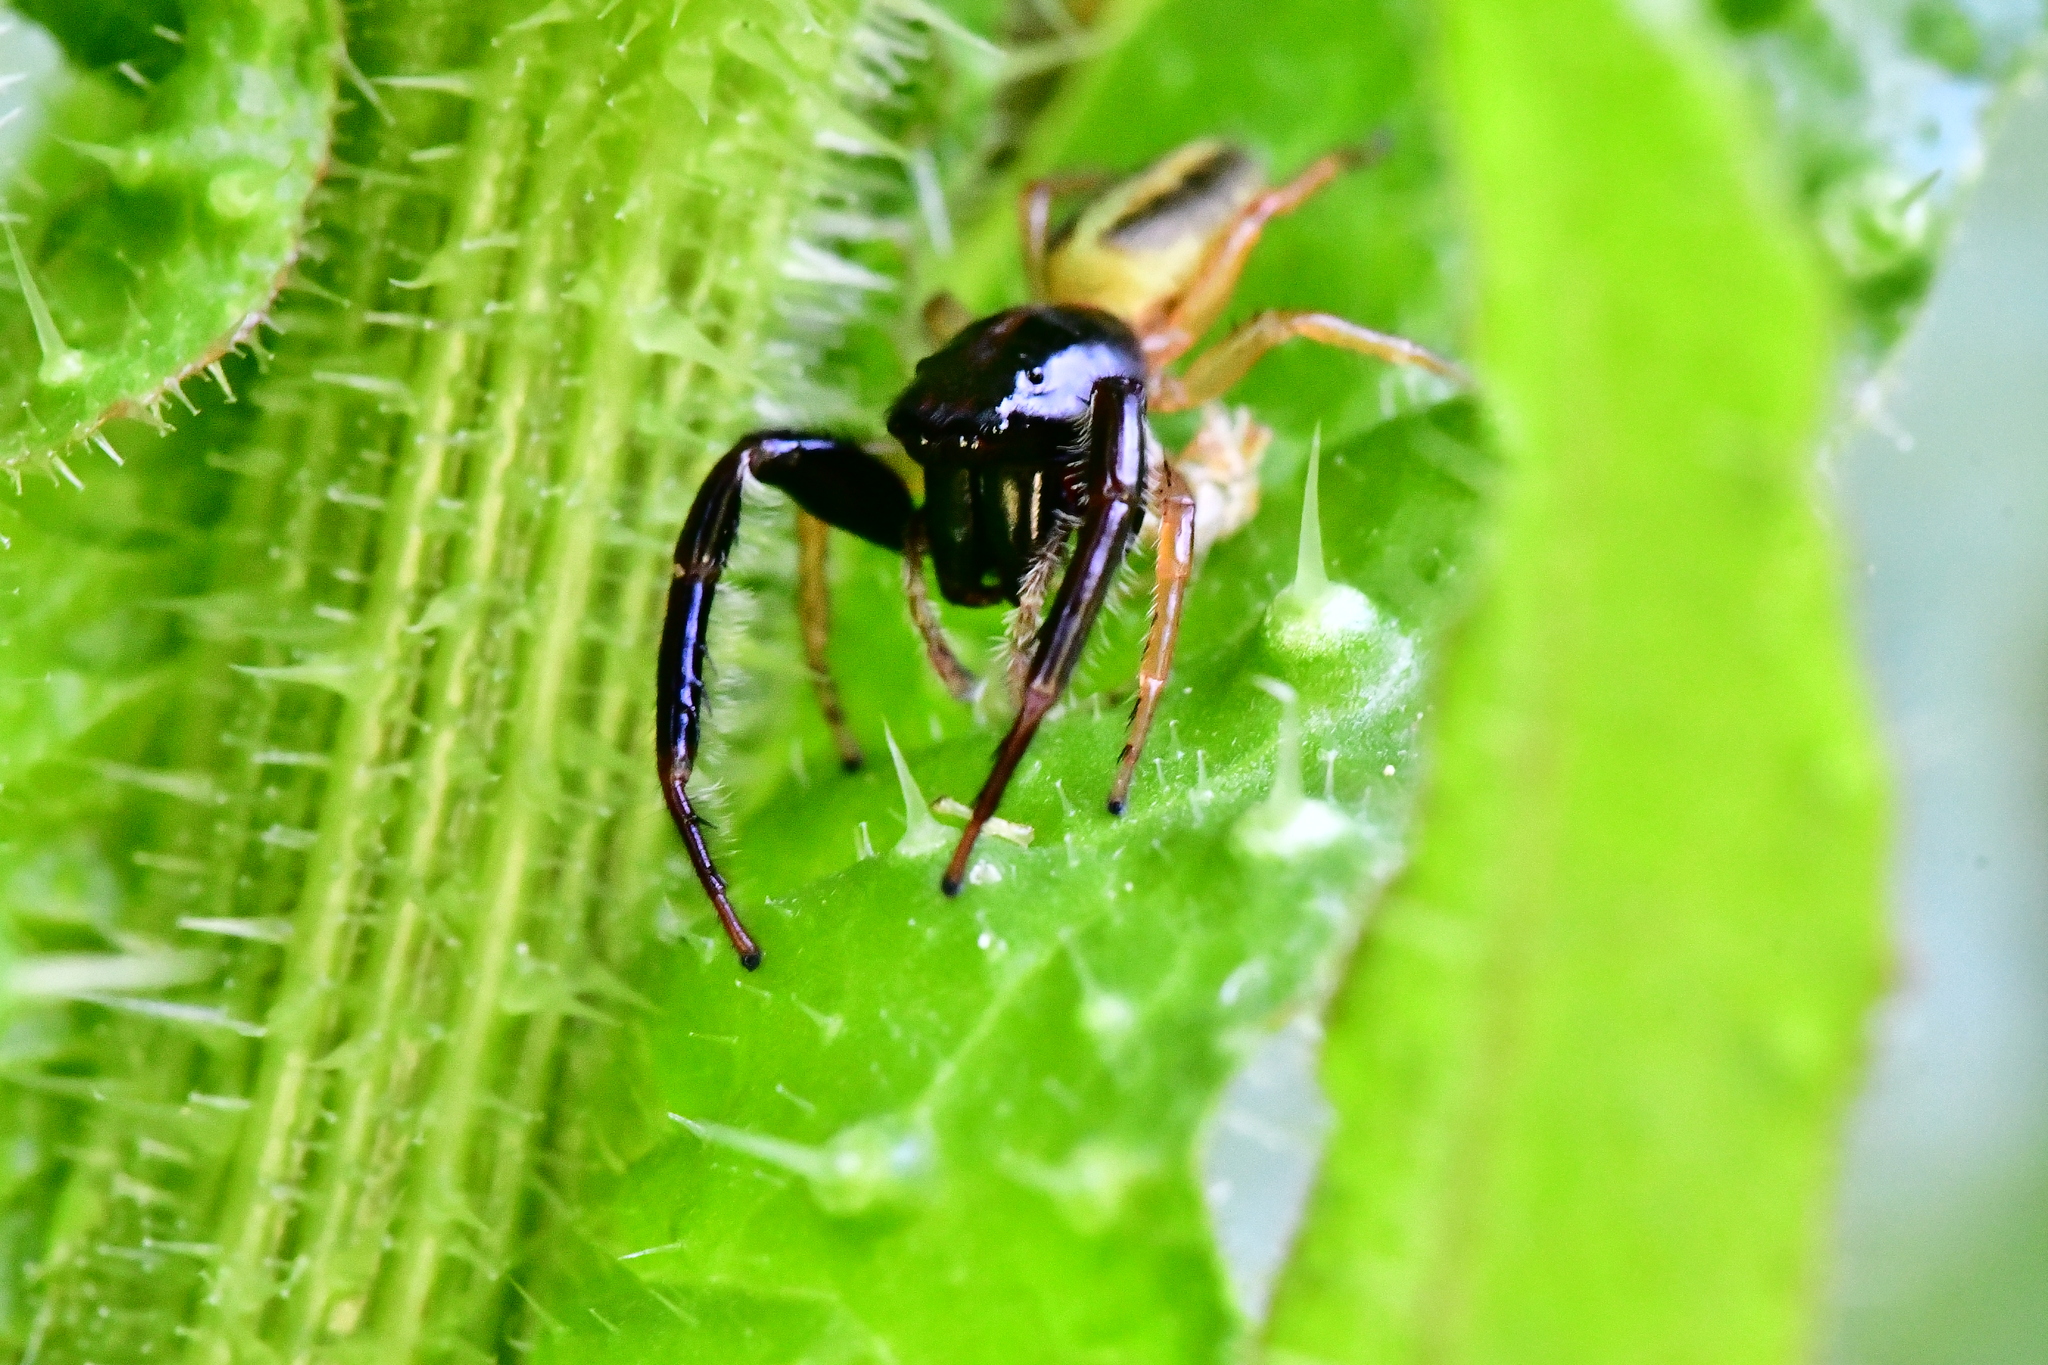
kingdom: Animalia
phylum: Arthropoda
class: Arachnida
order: Araneae
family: Salticidae
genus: Trite
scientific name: Trite planiceps
